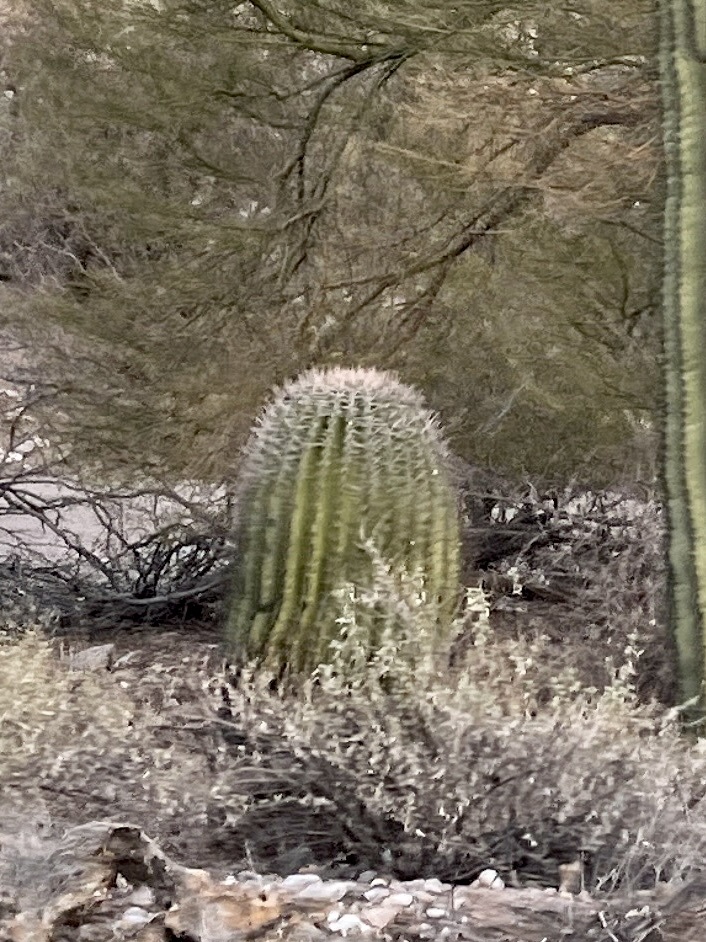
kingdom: Plantae
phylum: Tracheophyta
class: Magnoliopsida
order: Caryophyllales
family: Cactaceae
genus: Ferocactus
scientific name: Ferocactus wislizeni
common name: Candy barrel cactus
